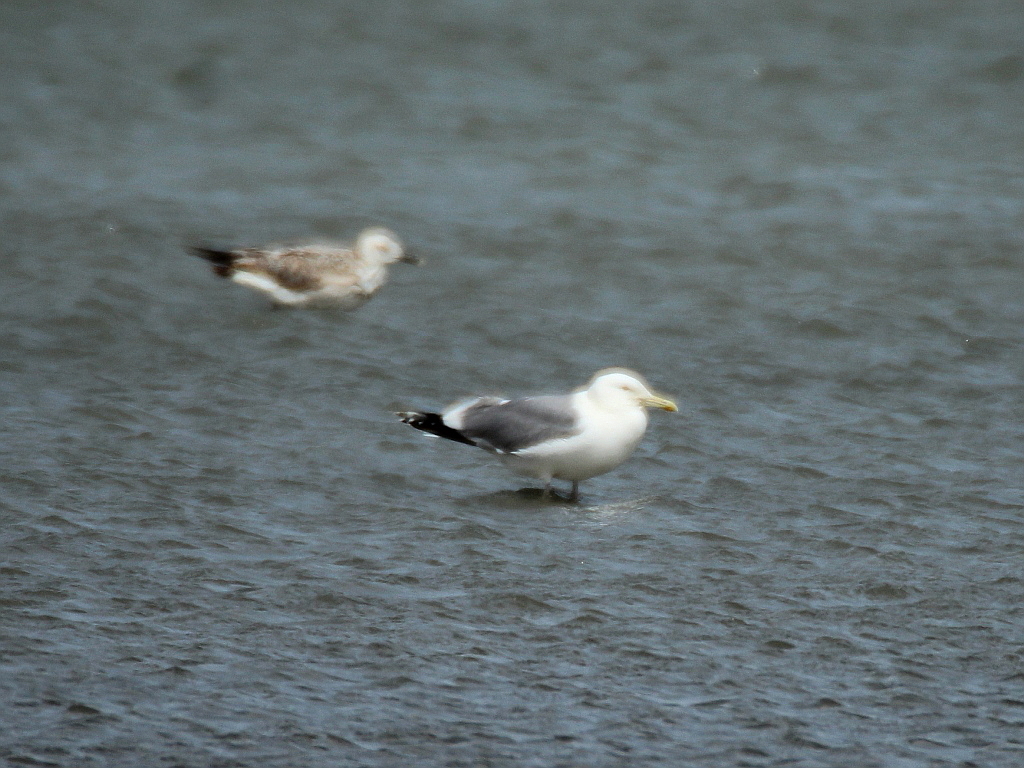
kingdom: Animalia
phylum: Chordata
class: Aves
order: Charadriiformes
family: Laridae
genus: Larus
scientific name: Larus cachinnans
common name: Caspian gull
